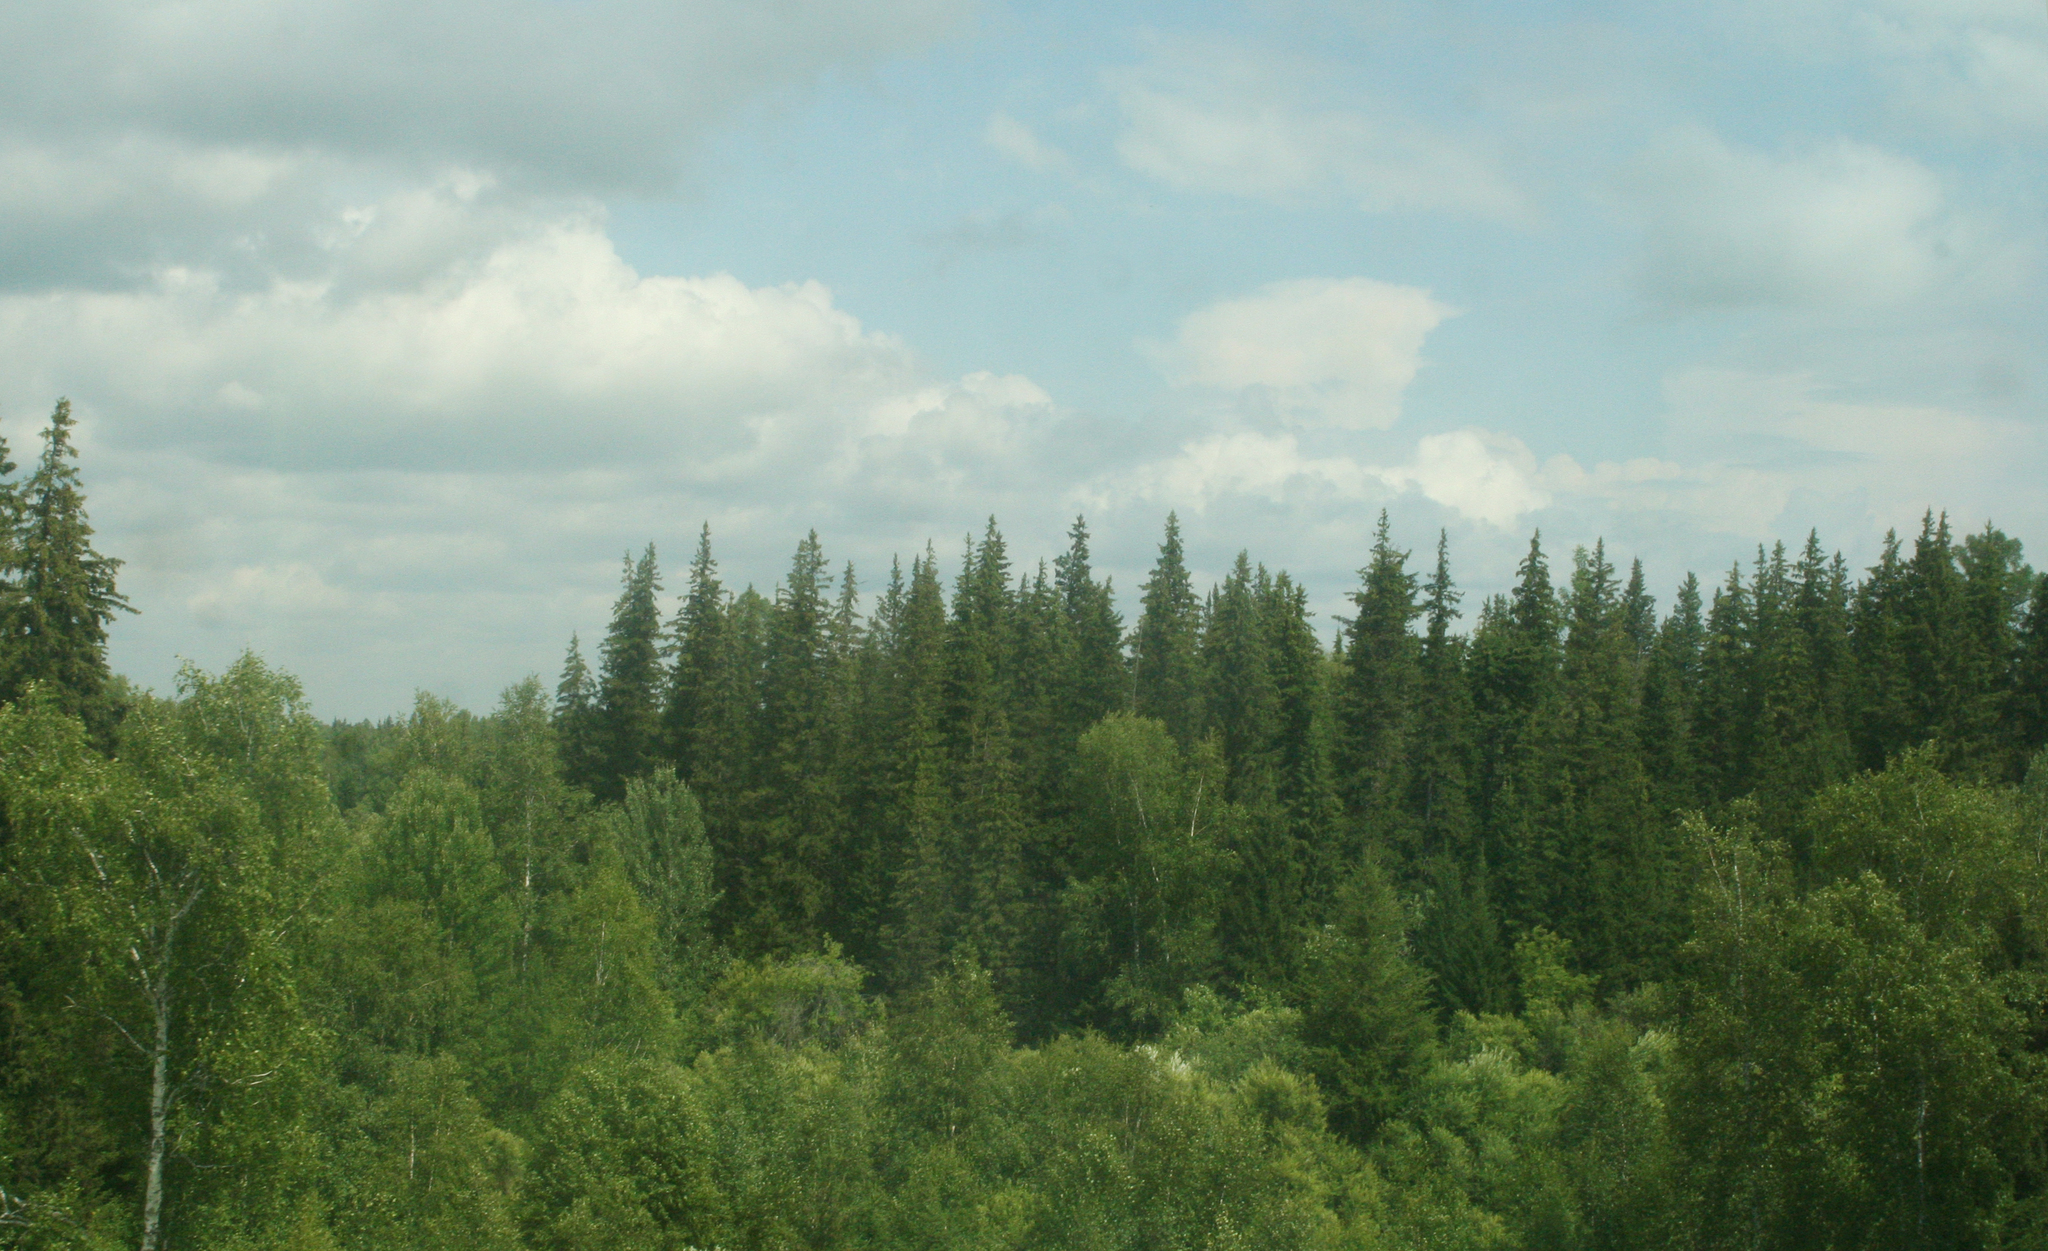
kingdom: Plantae
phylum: Tracheophyta
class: Pinopsida
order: Pinales
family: Pinaceae
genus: Picea
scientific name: Picea obovata
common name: Siberian spruce
